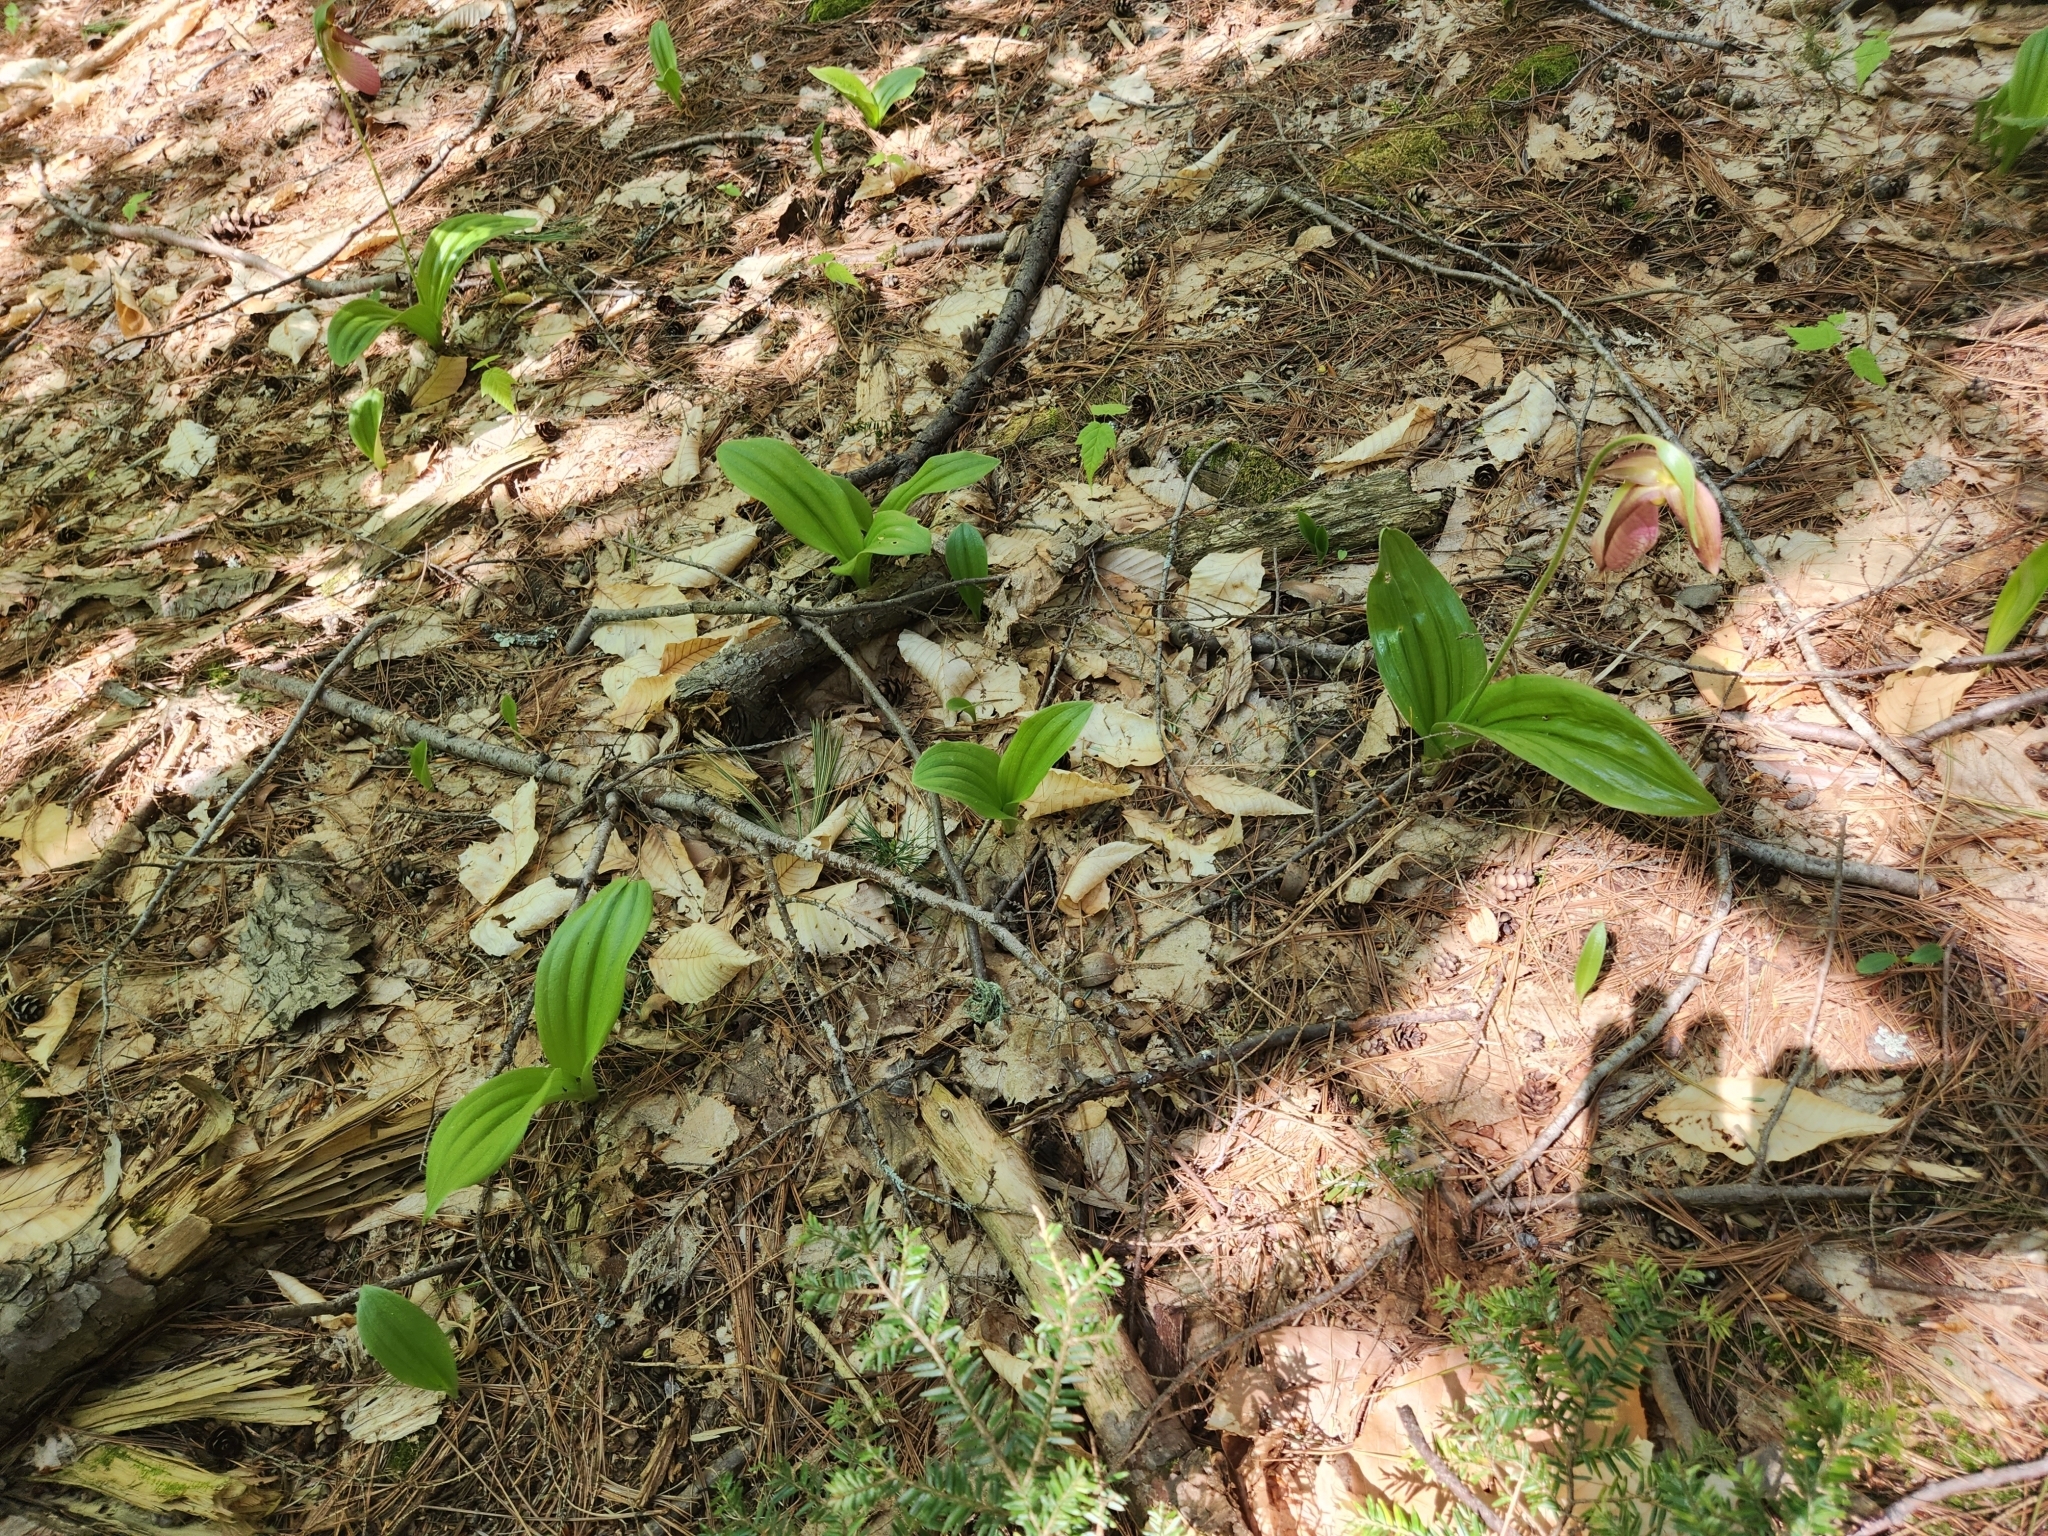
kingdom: Plantae
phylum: Tracheophyta
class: Liliopsida
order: Asparagales
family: Orchidaceae
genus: Cypripedium
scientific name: Cypripedium acaule
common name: Pink lady's-slipper
